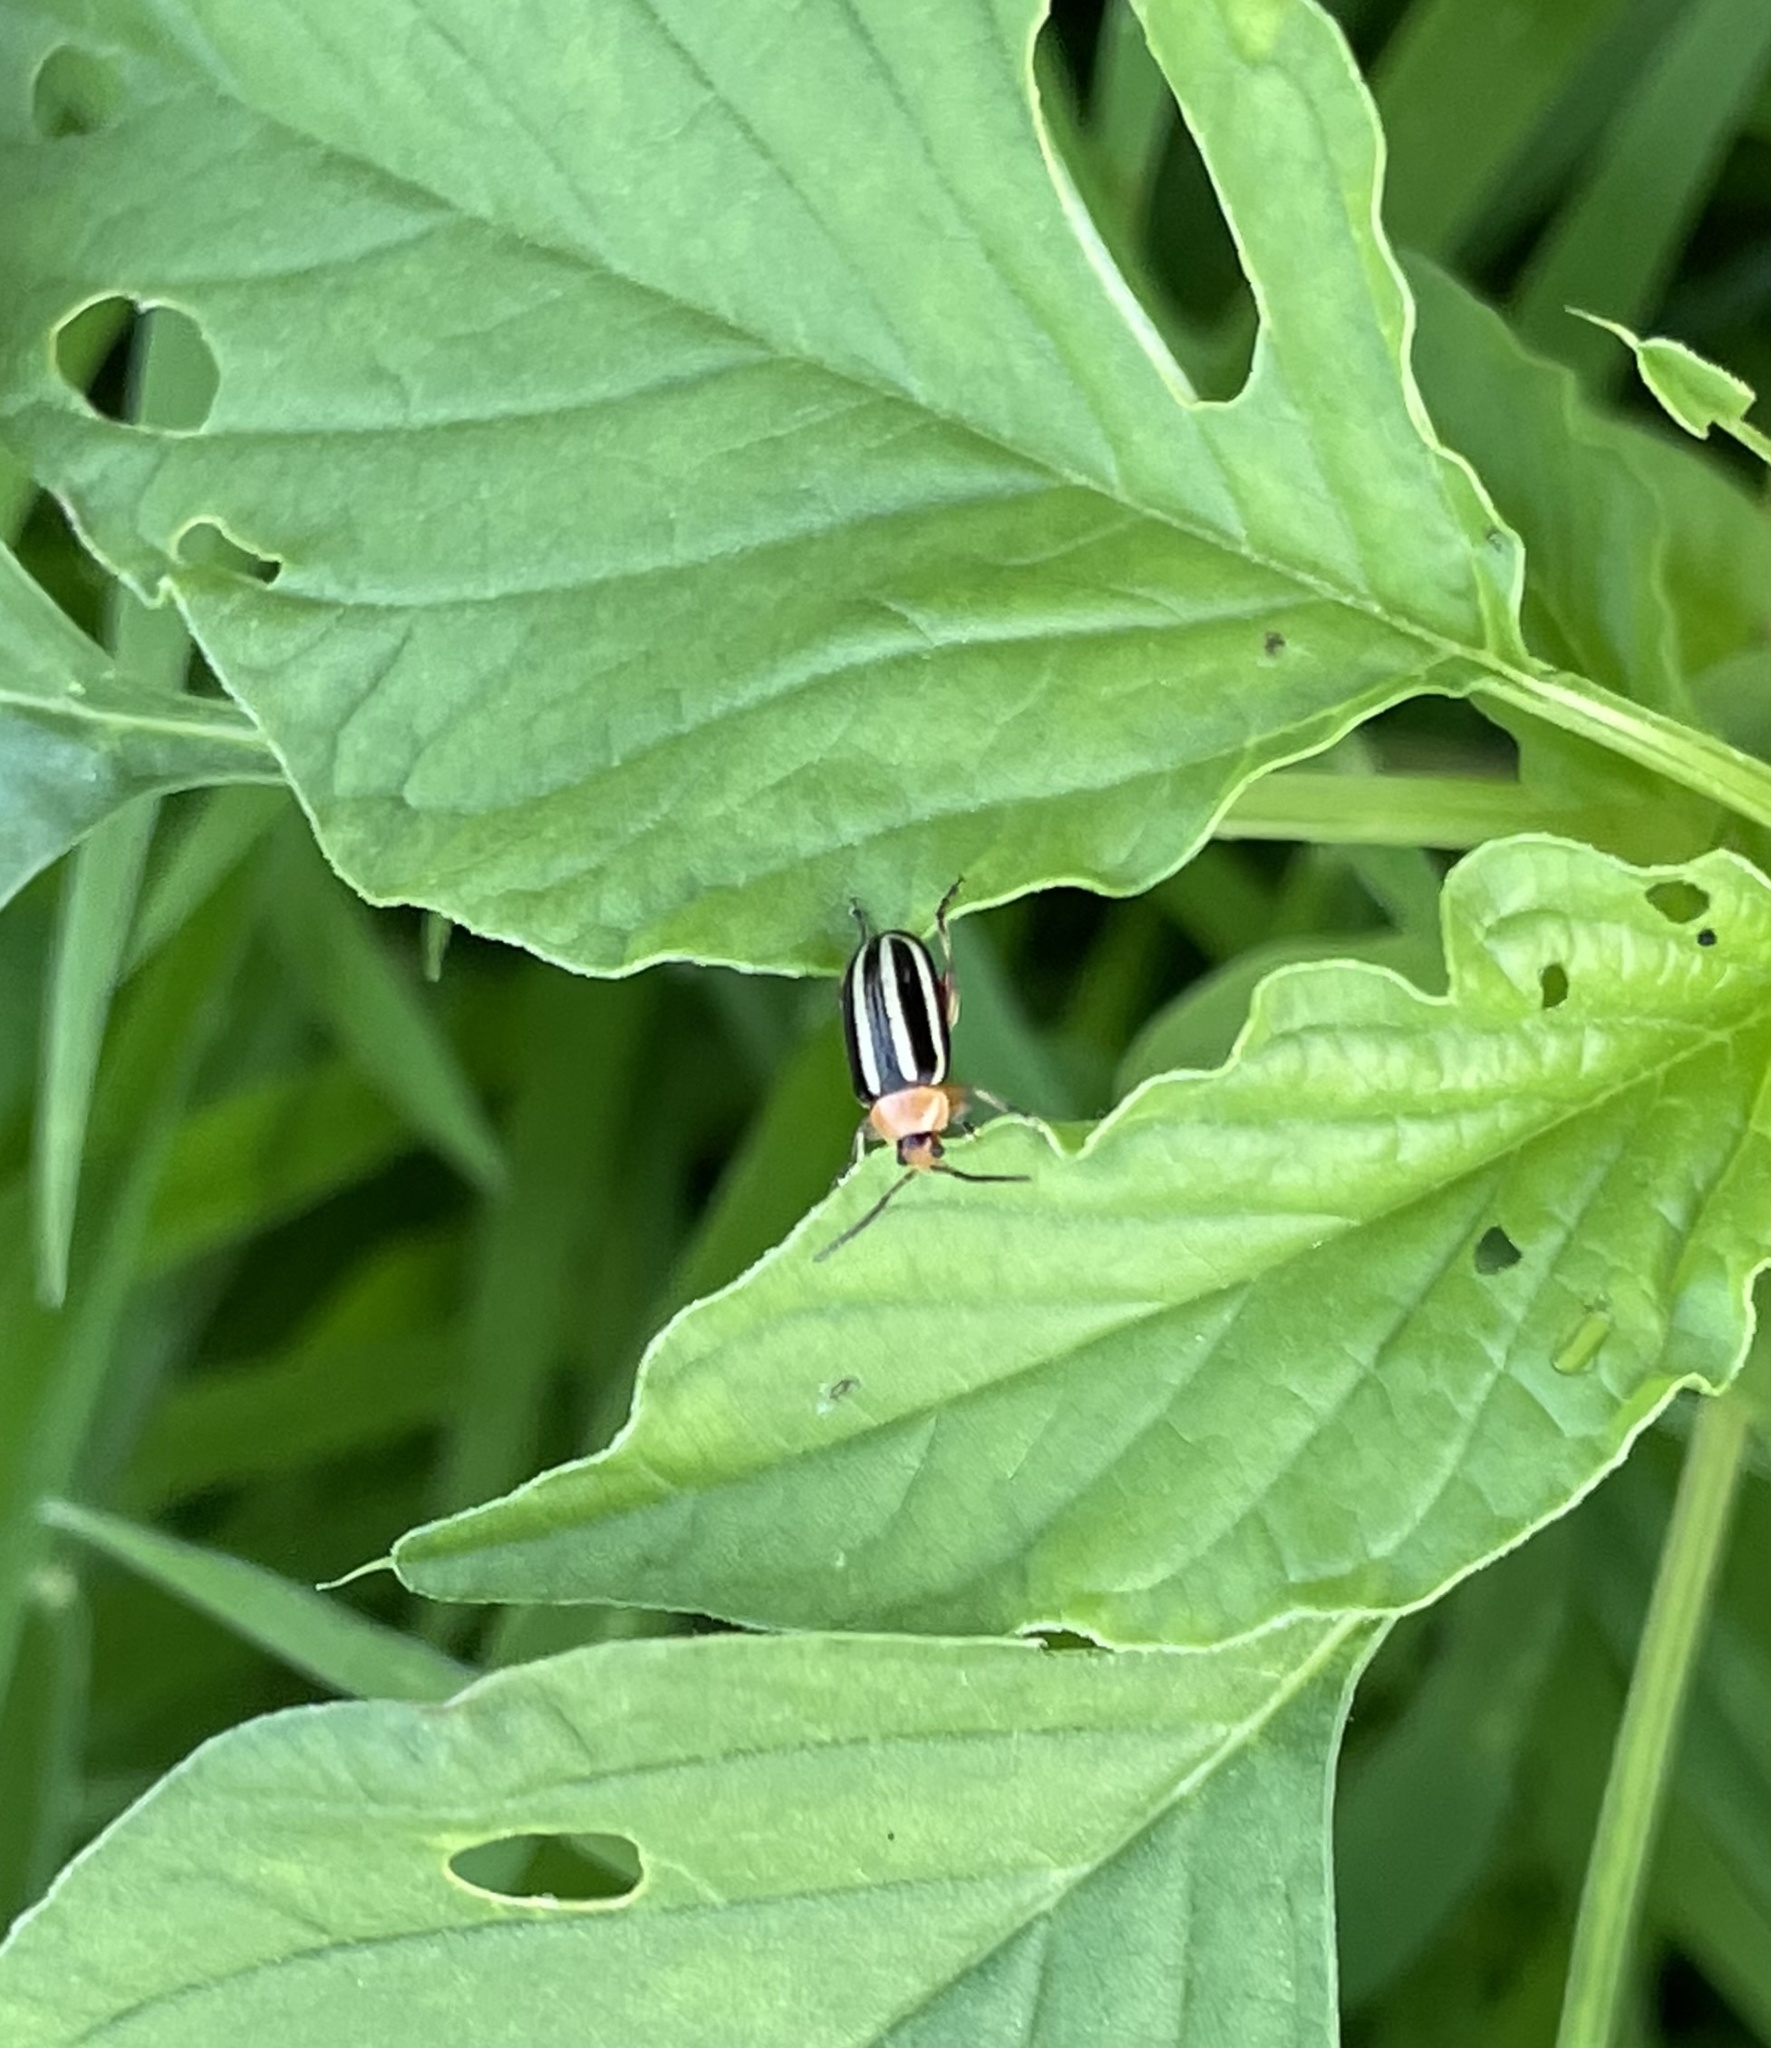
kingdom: Animalia
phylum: Arthropoda
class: Insecta
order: Coleoptera
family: Chrysomelidae
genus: Disonycha
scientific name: Disonycha glabrata
